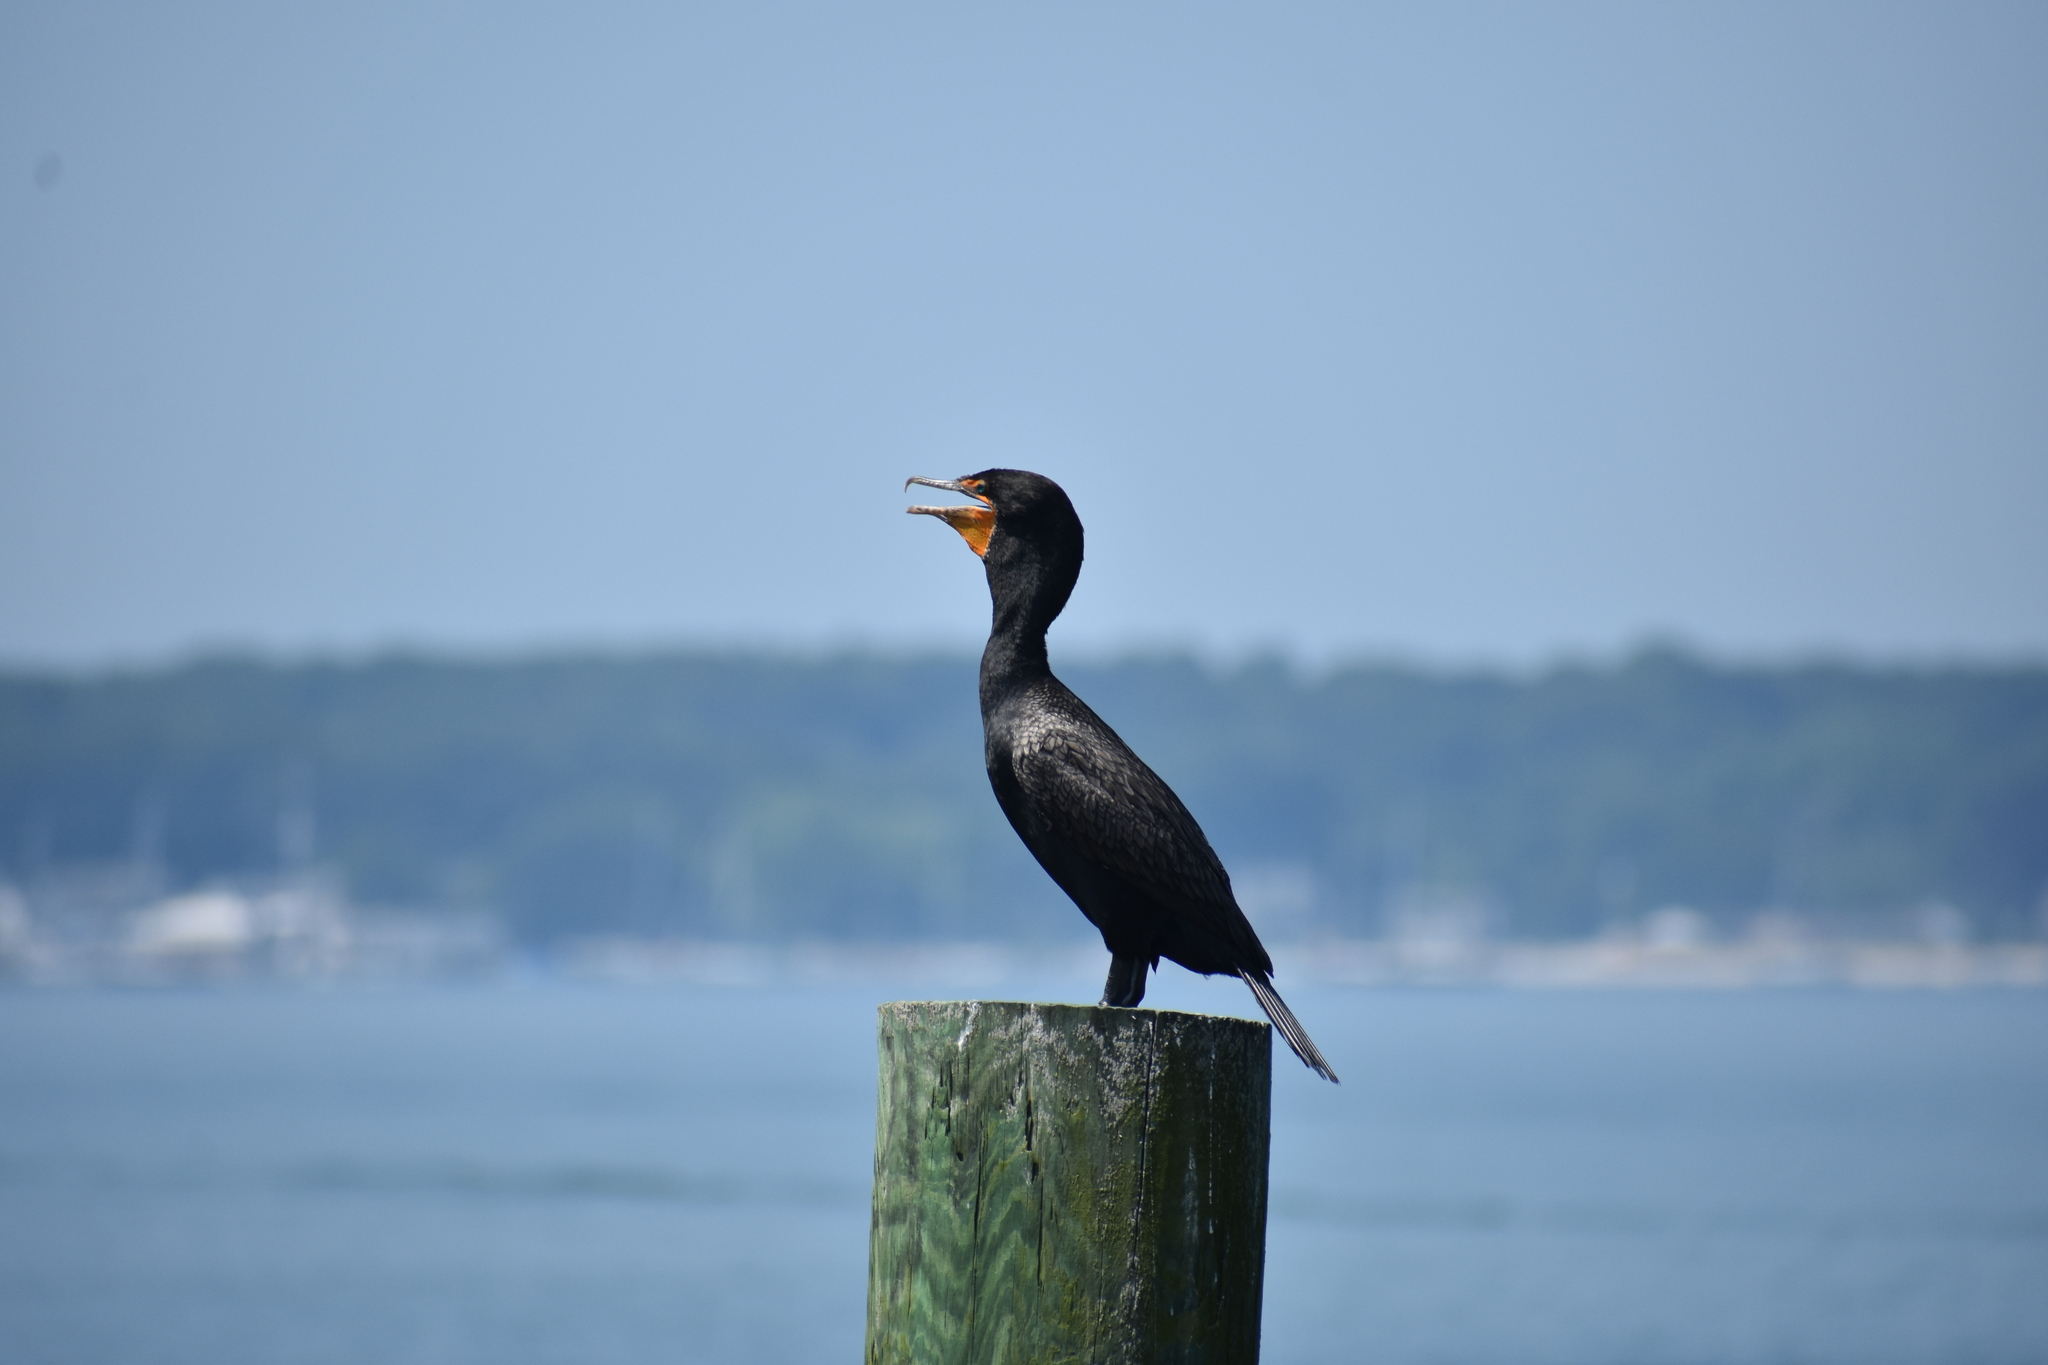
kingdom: Animalia
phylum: Chordata
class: Aves
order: Suliformes
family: Phalacrocoracidae
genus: Phalacrocorax
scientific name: Phalacrocorax auritus
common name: Double-crested cormorant
